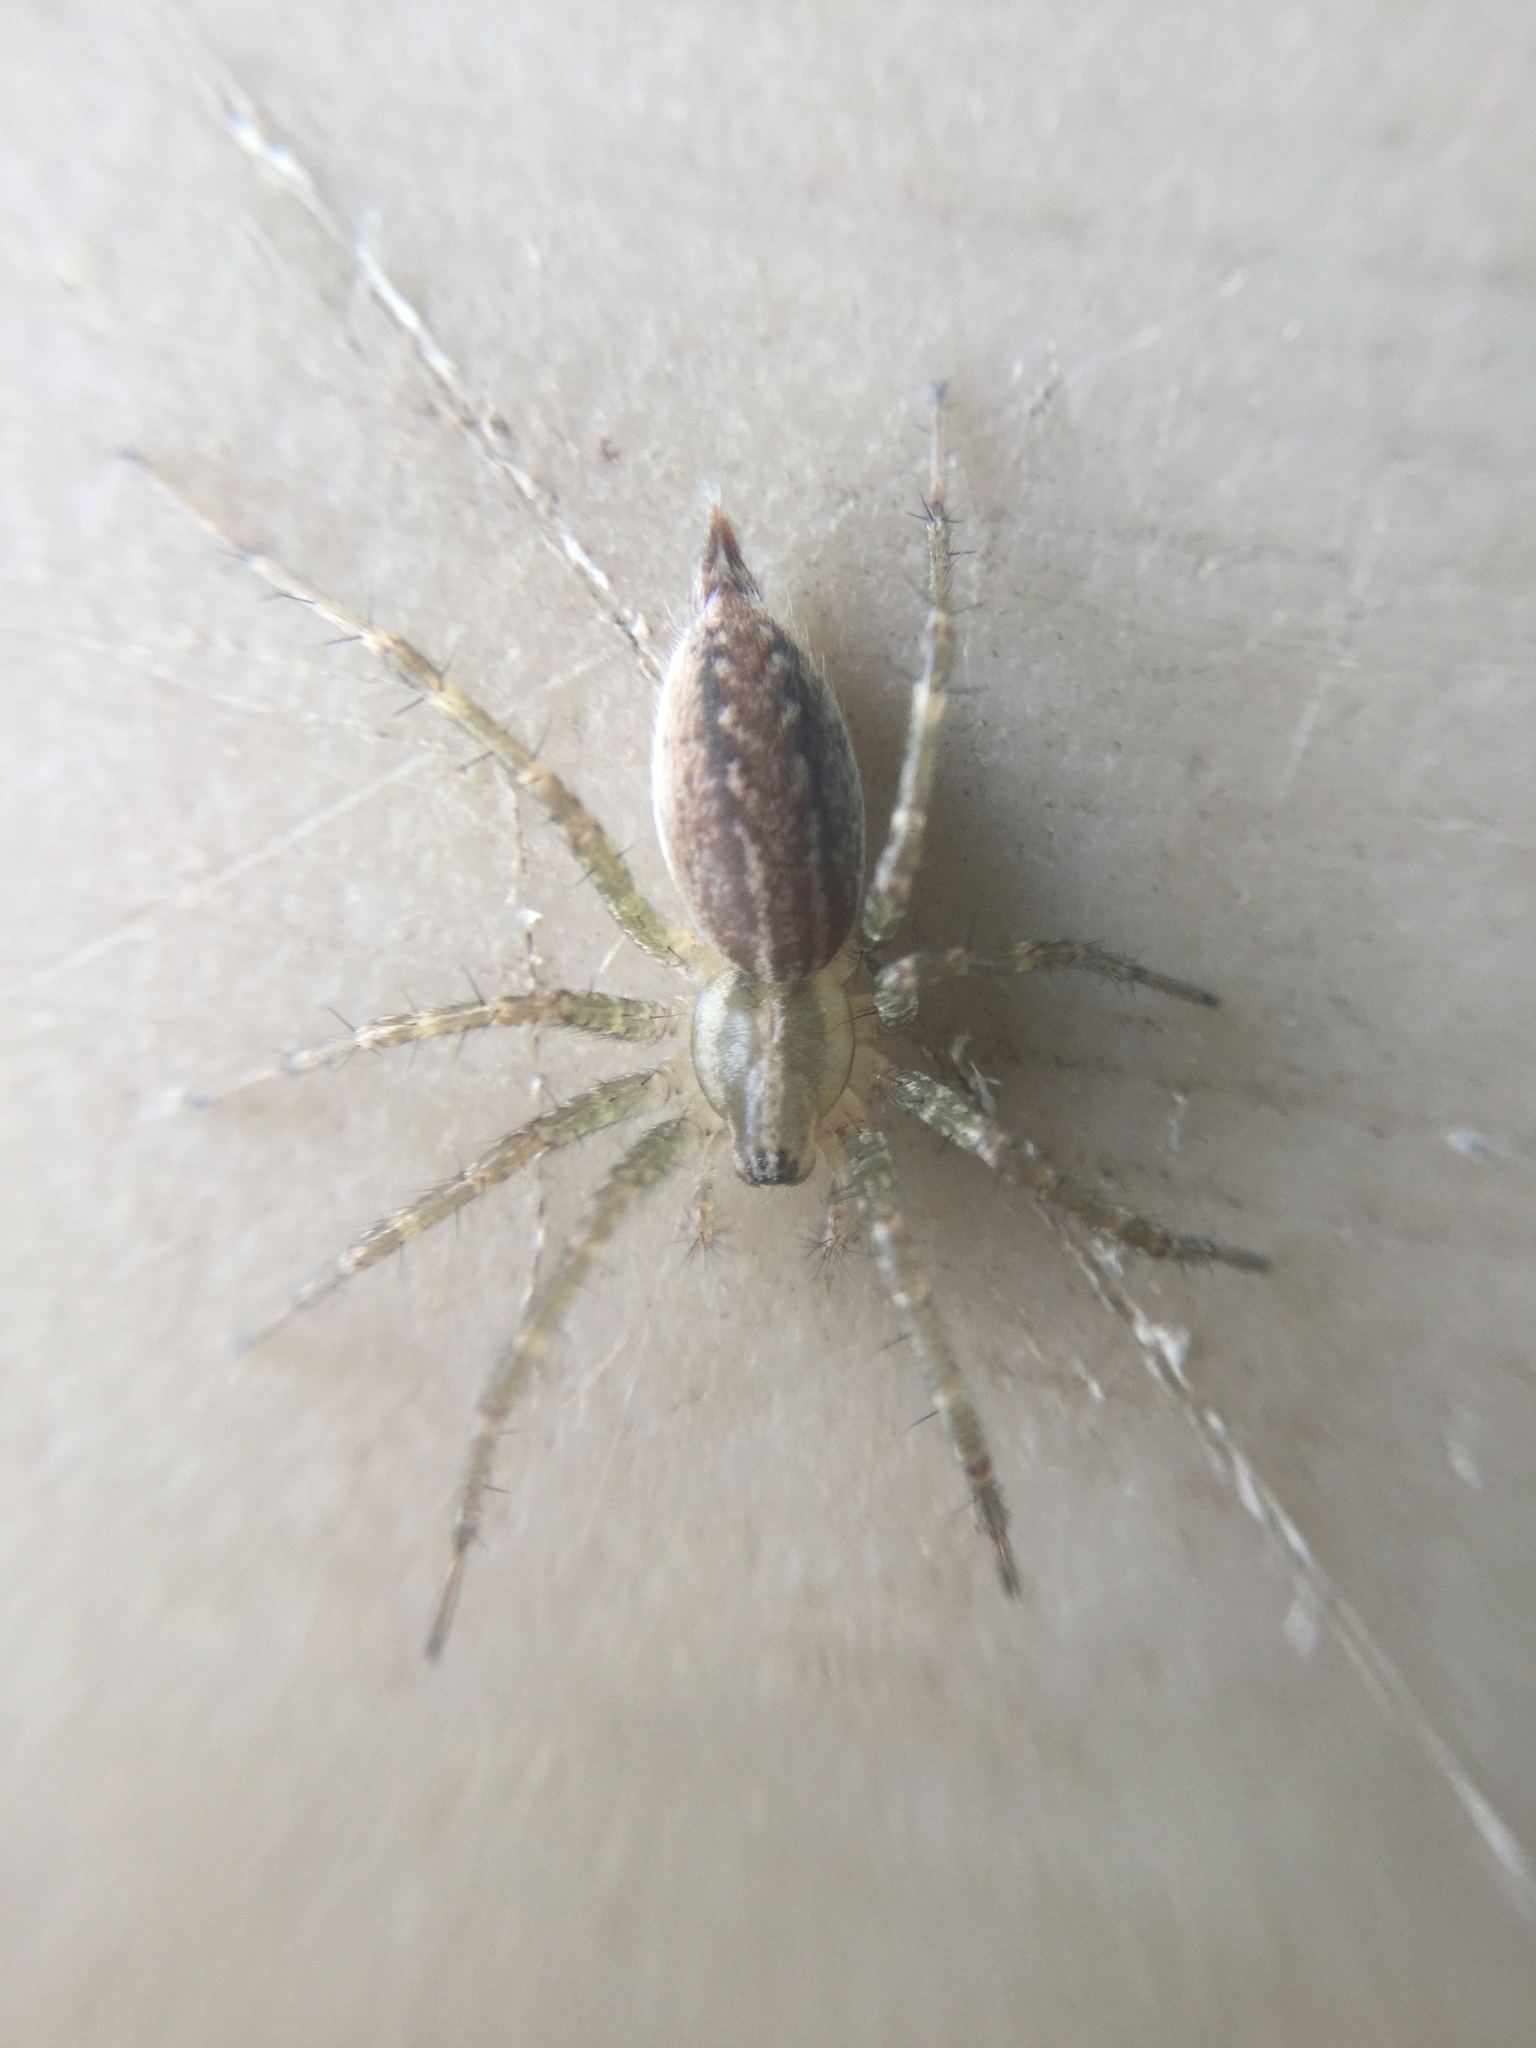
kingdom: Animalia
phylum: Arthropoda
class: Arachnida
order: Araneae
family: Agelenidae
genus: Agelenopsis
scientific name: Agelenopsis
